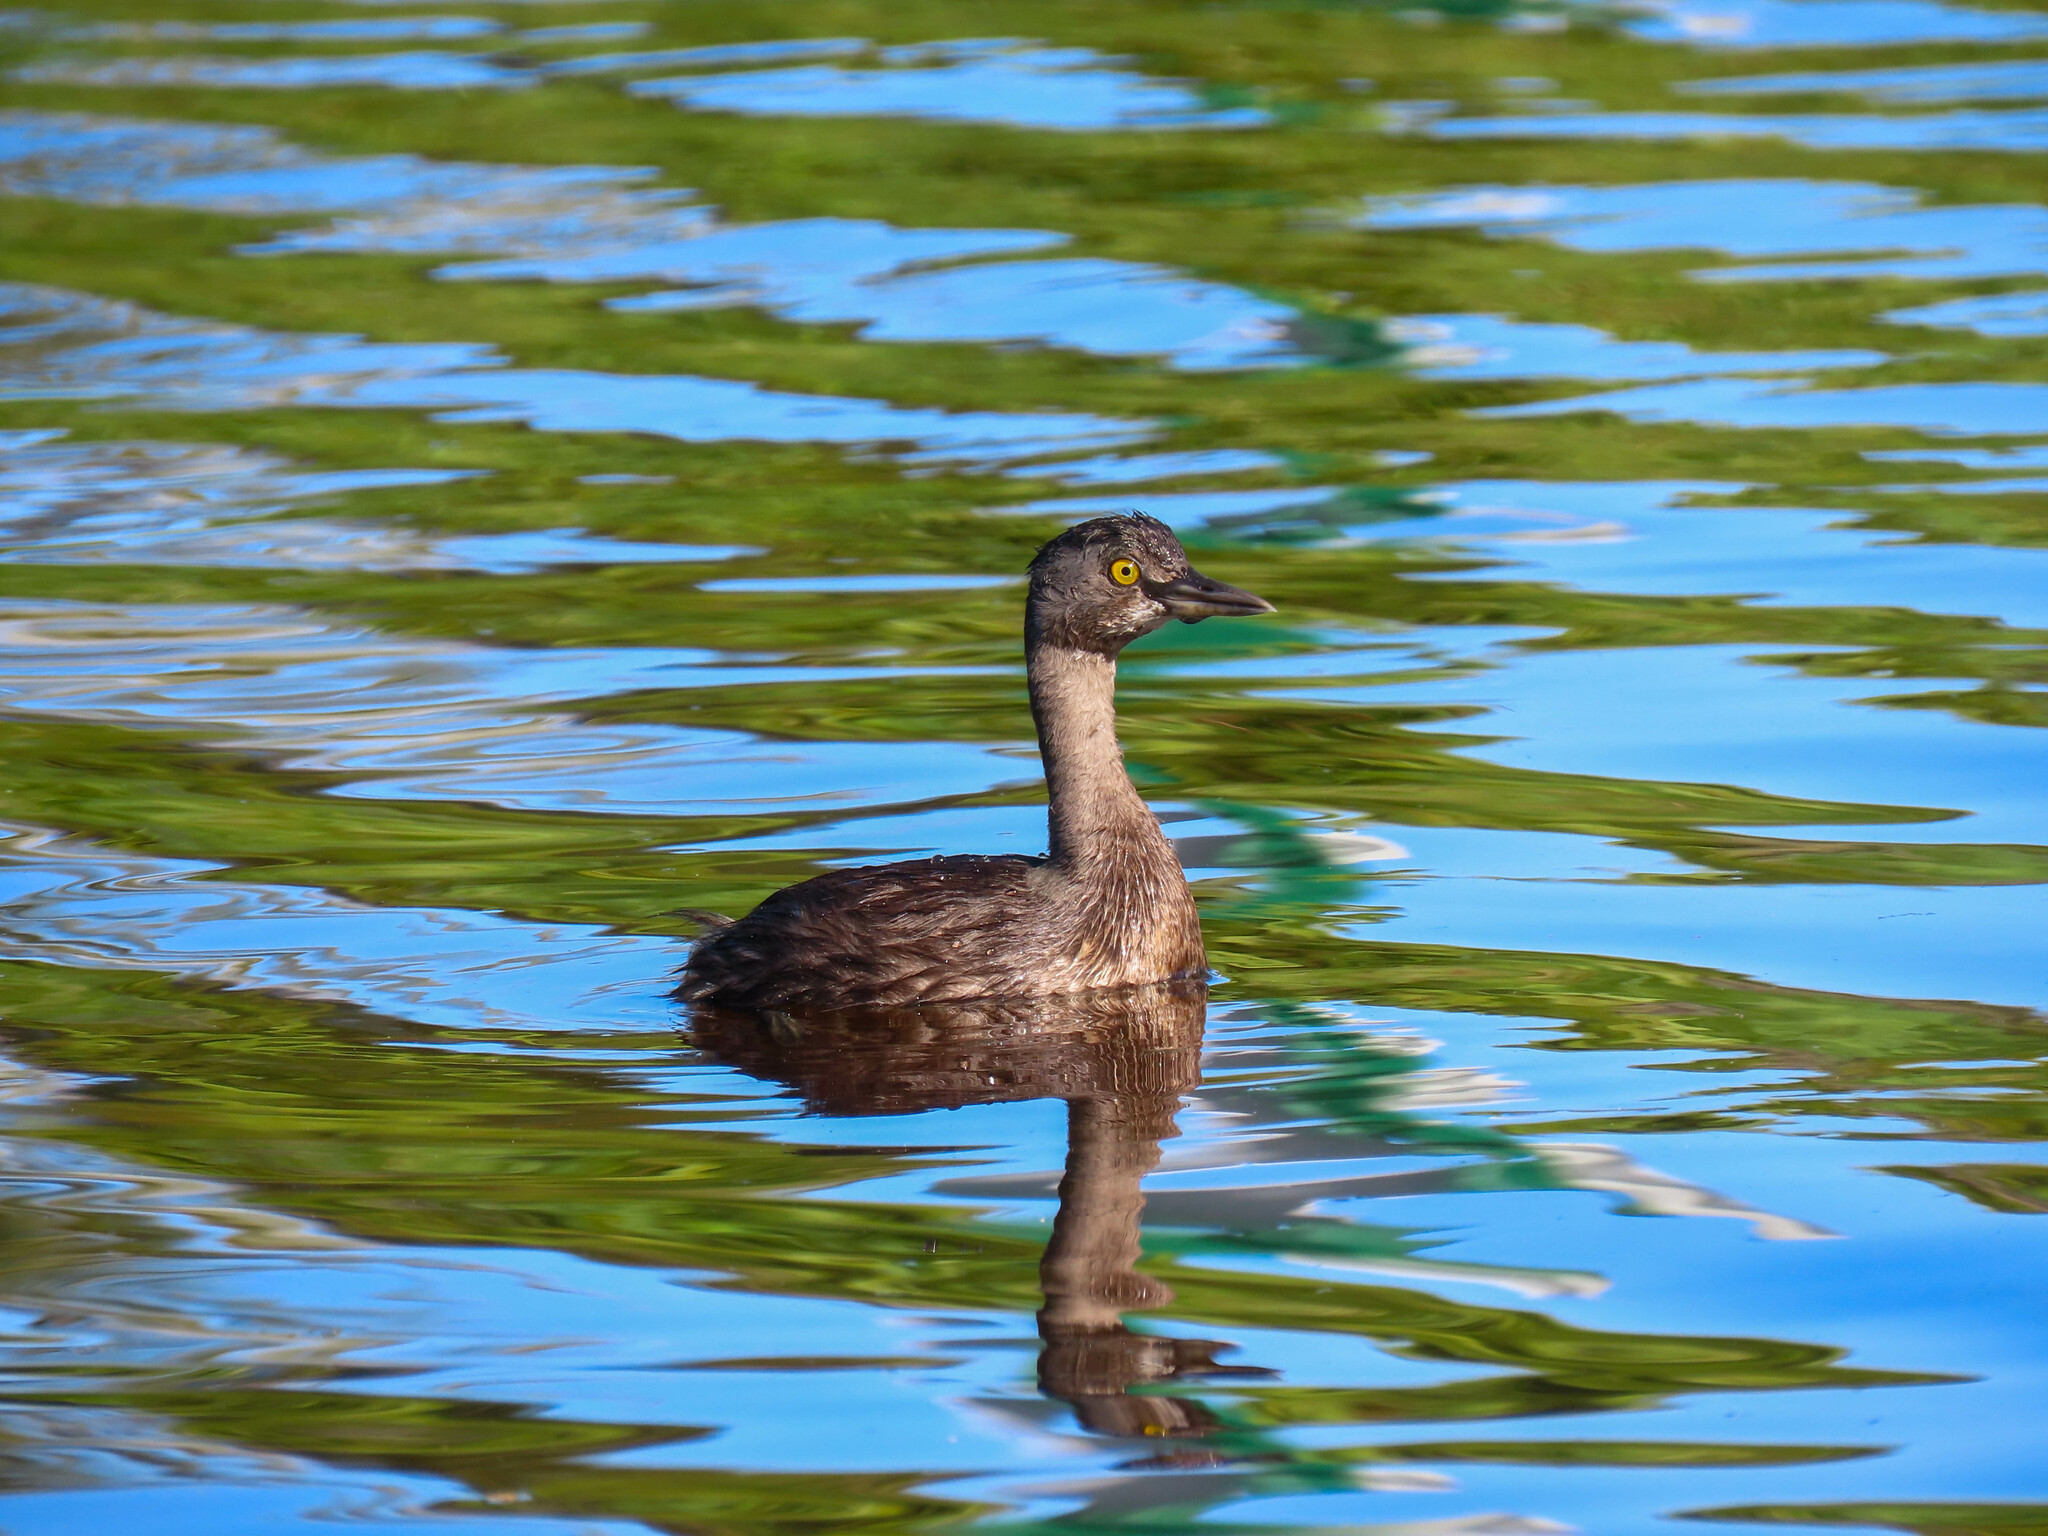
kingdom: Animalia
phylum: Chordata
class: Aves
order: Podicipediformes
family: Podicipedidae
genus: Tachybaptus
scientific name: Tachybaptus dominicus
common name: Least grebe
